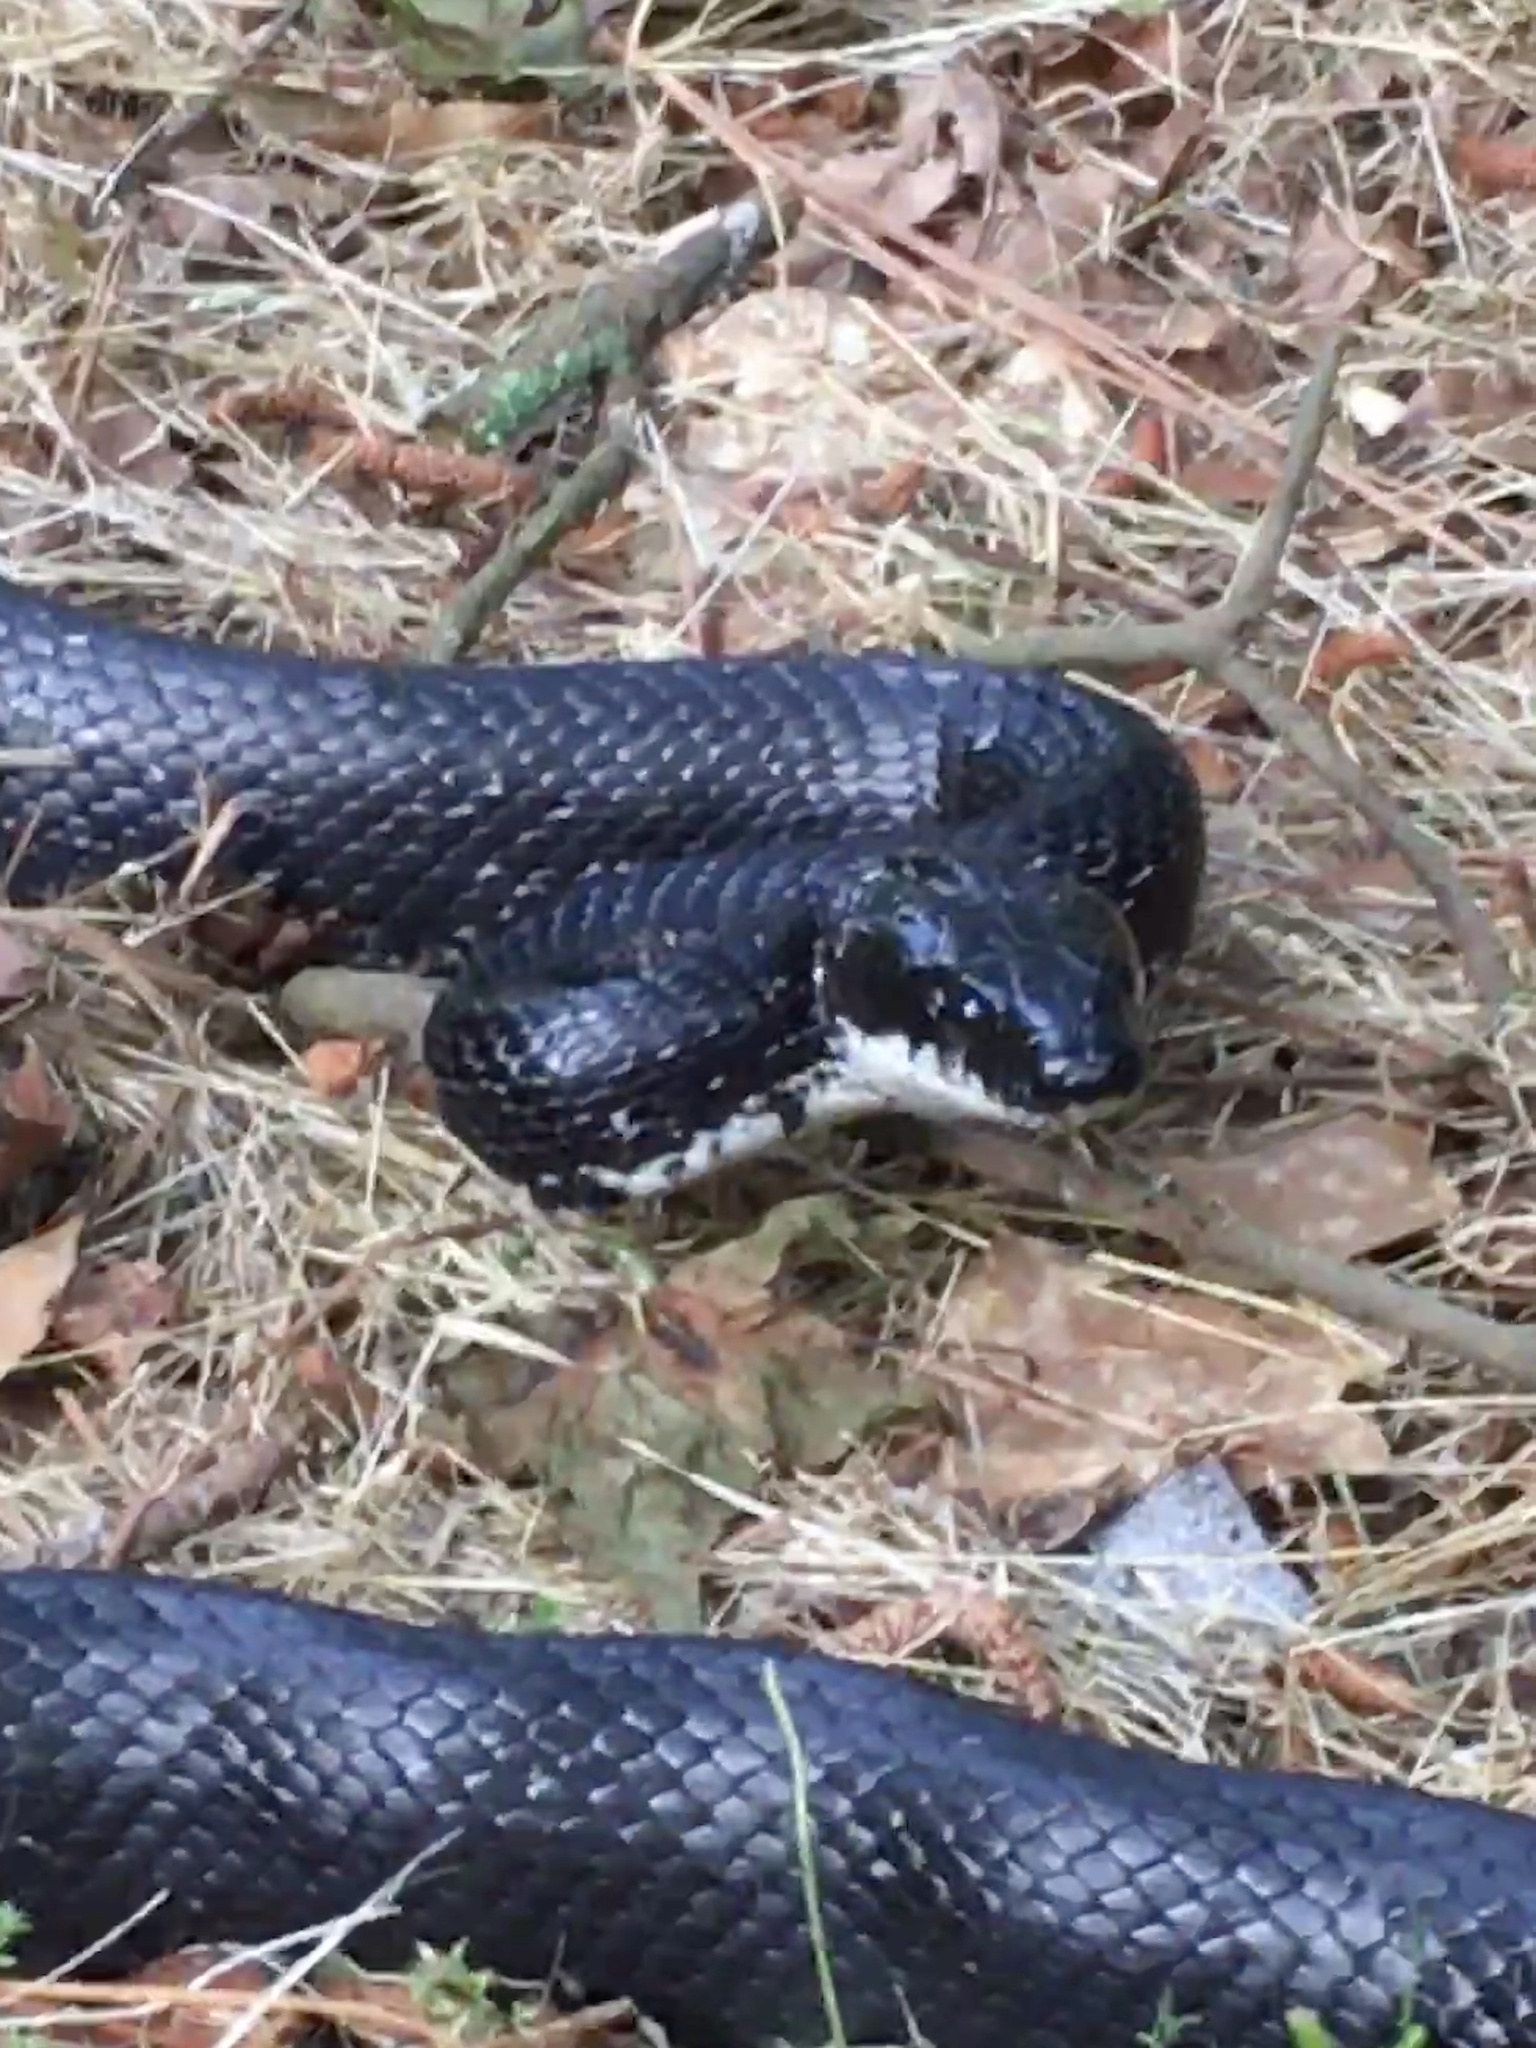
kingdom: Animalia
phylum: Chordata
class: Squamata
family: Colubridae
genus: Pantherophis
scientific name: Pantherophis alleghaniensis
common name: Eastern rat snake
